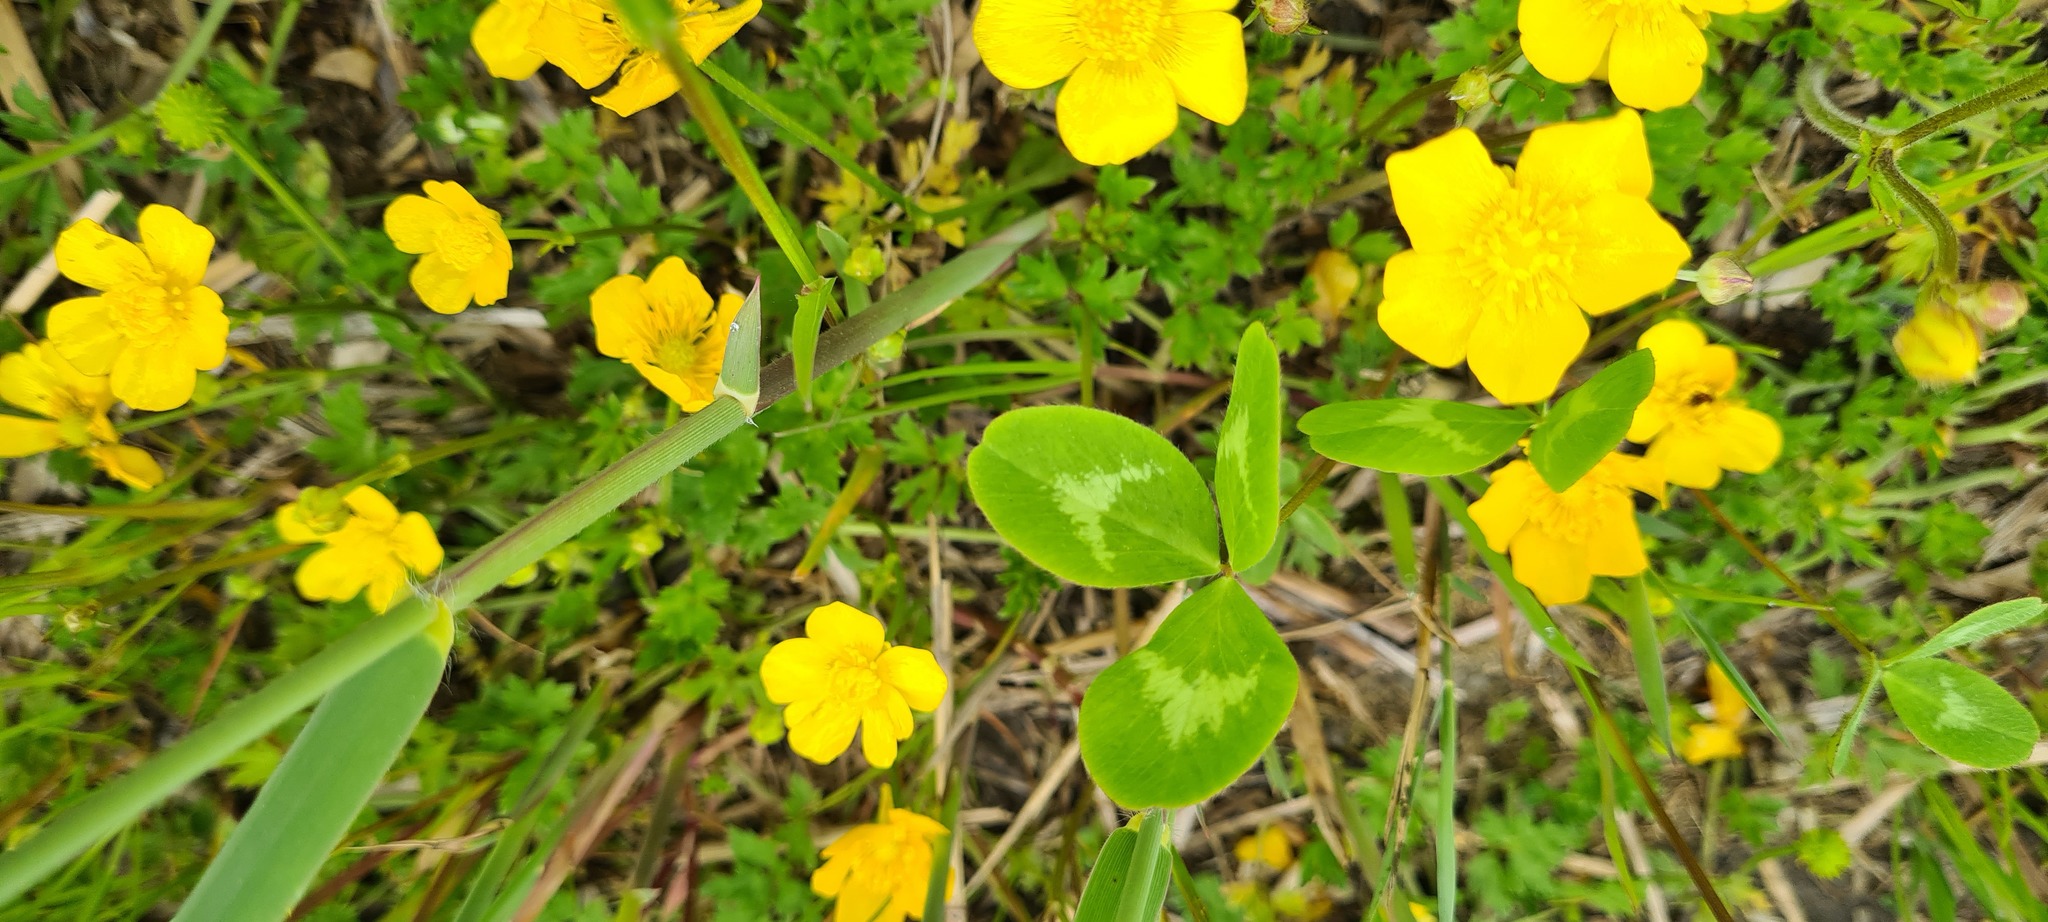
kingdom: Plantae
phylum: Tracheophyta
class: Magnoliopsida
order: Fabales
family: Fabaceae
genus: Trifolium
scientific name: Trifolium pratense
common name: Red clover
